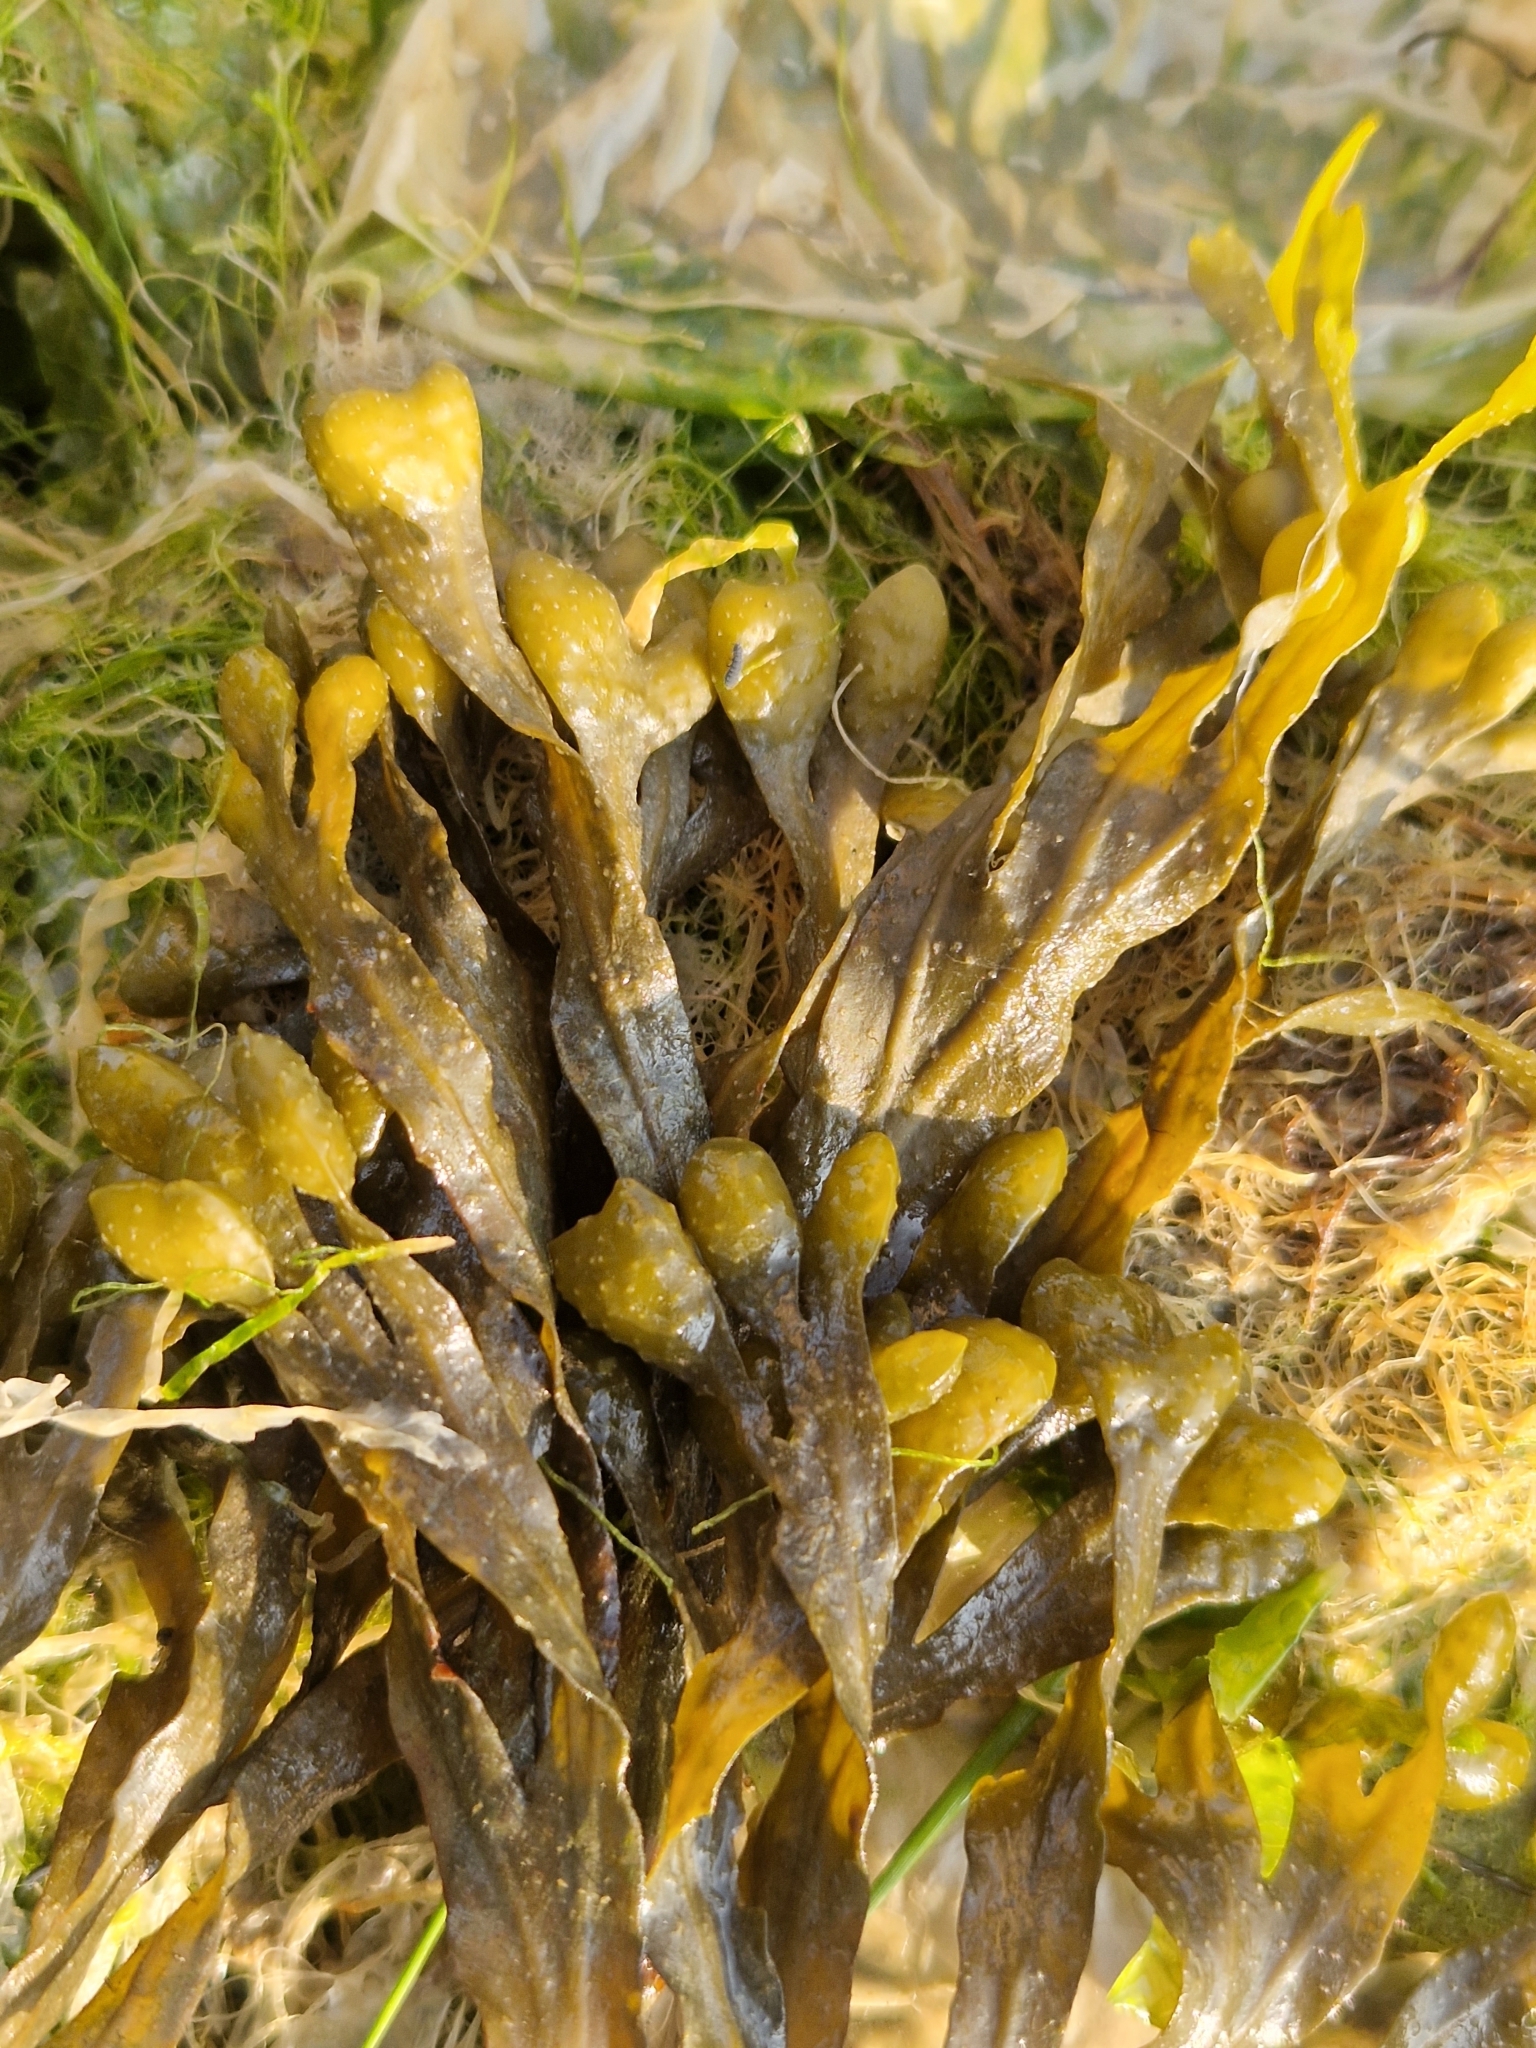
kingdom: Chromista
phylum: Ochrophyta
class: Phaeophyceae
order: Fucales
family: Fucaceae
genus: Fucus
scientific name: Fucus spiralis
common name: Spiral wrack
